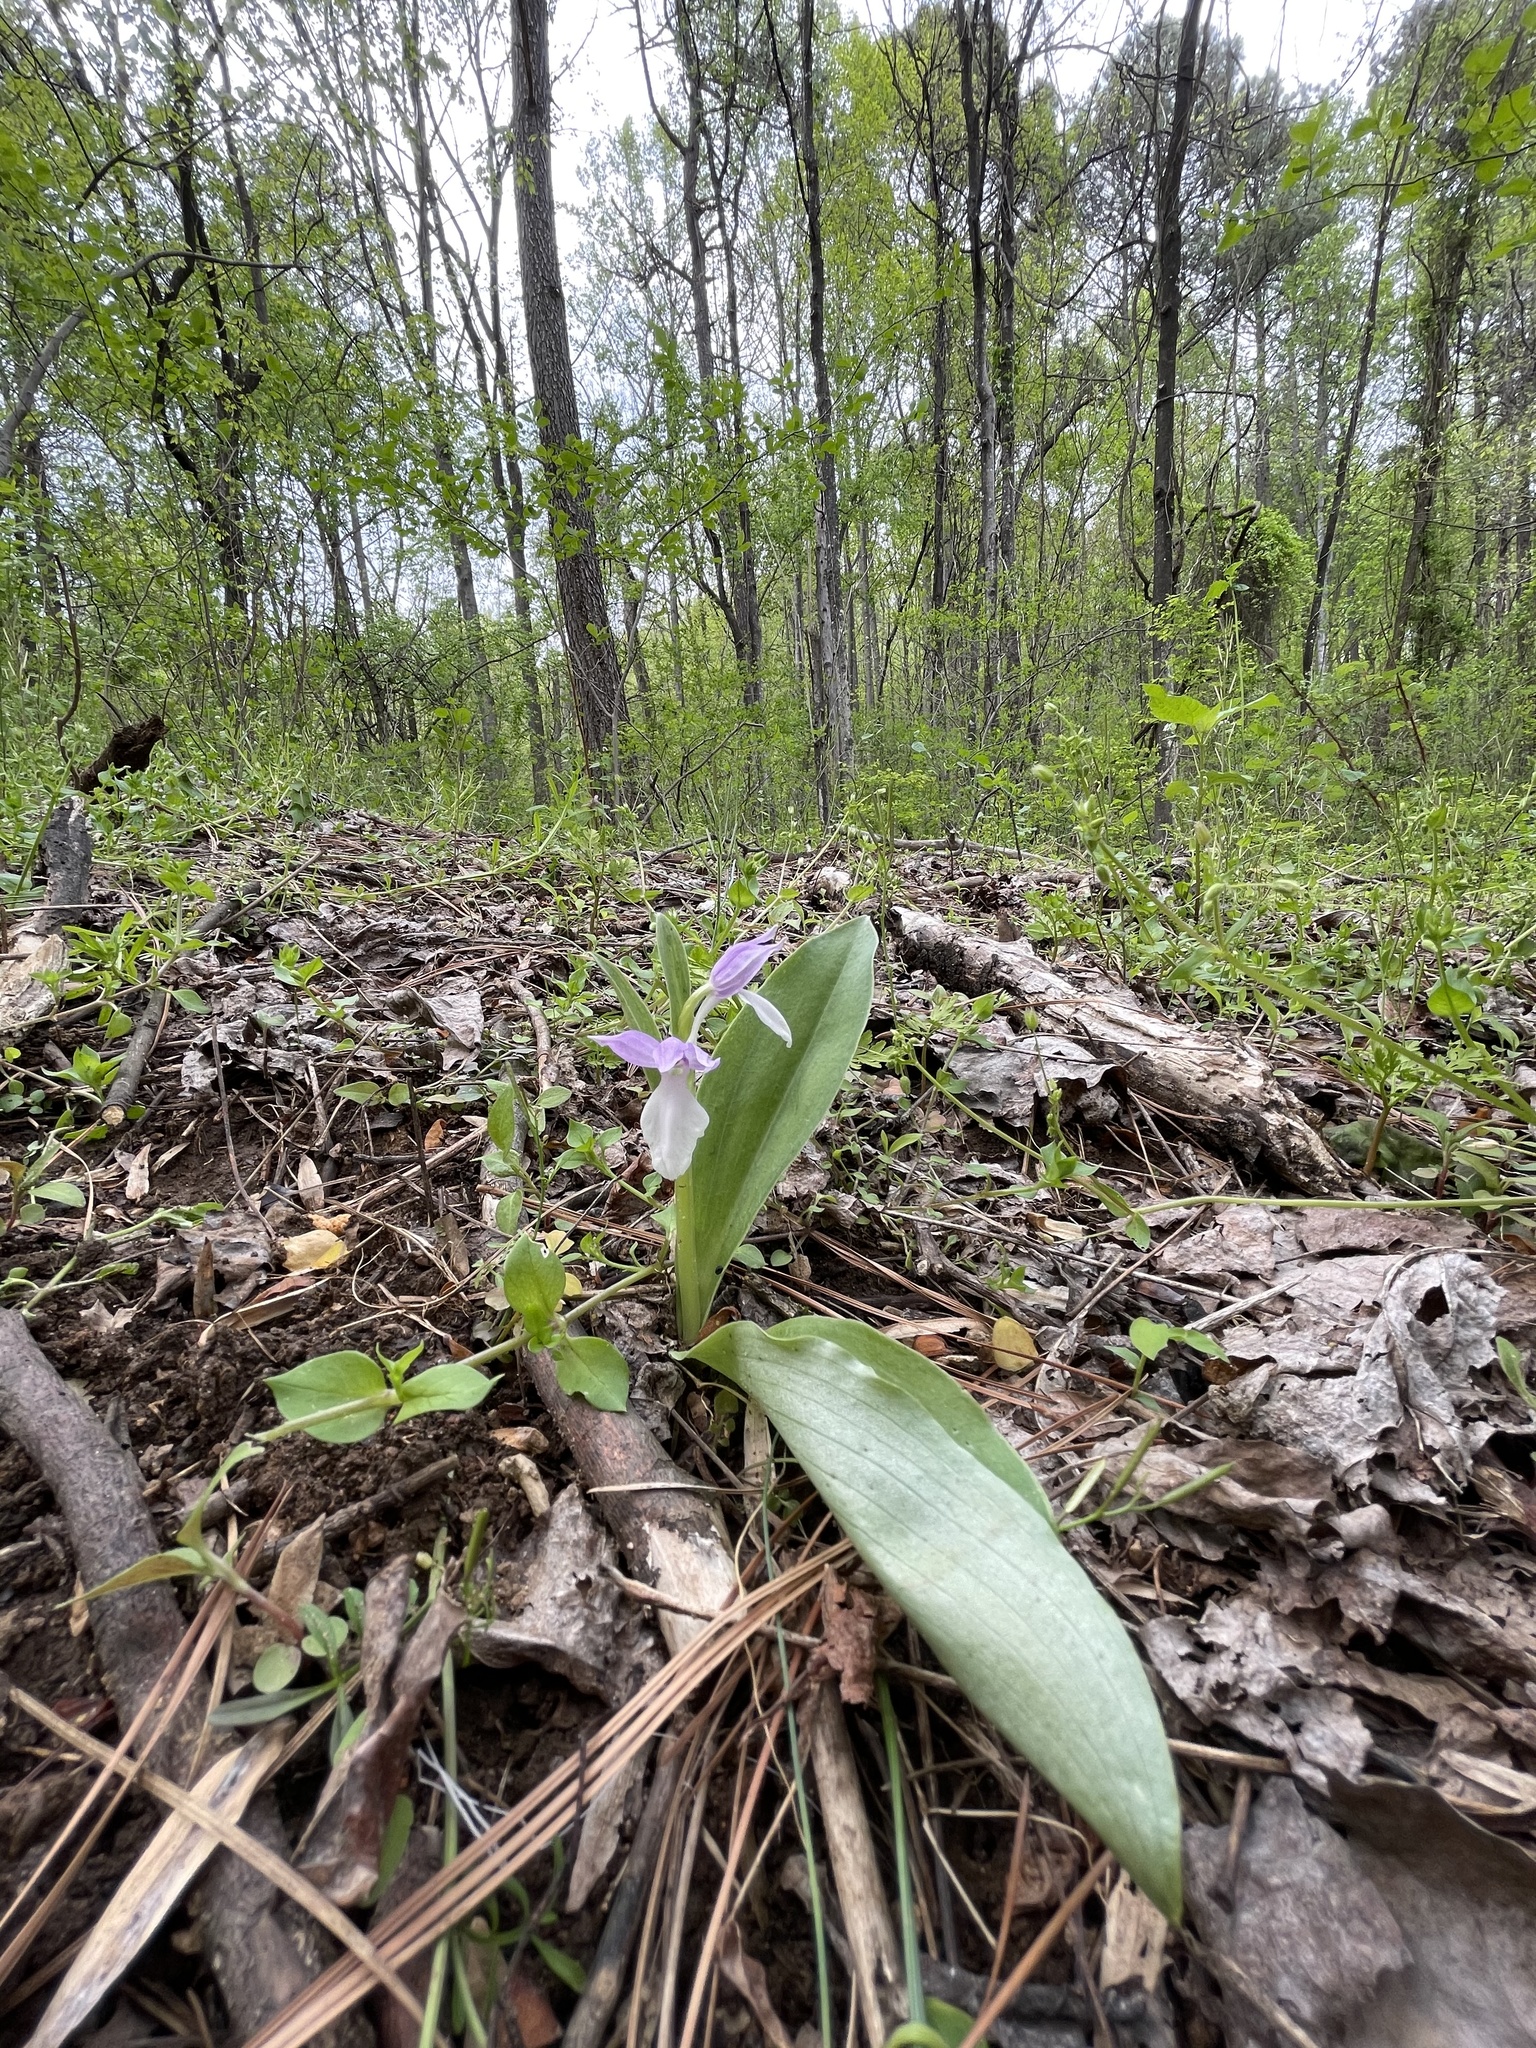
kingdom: Plantae
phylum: Tracheophyta
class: Liliopsida
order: Asparagales
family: Orchidaceae
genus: Galearis
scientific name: Galearis spectabilis
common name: Purple-hooded orchis
